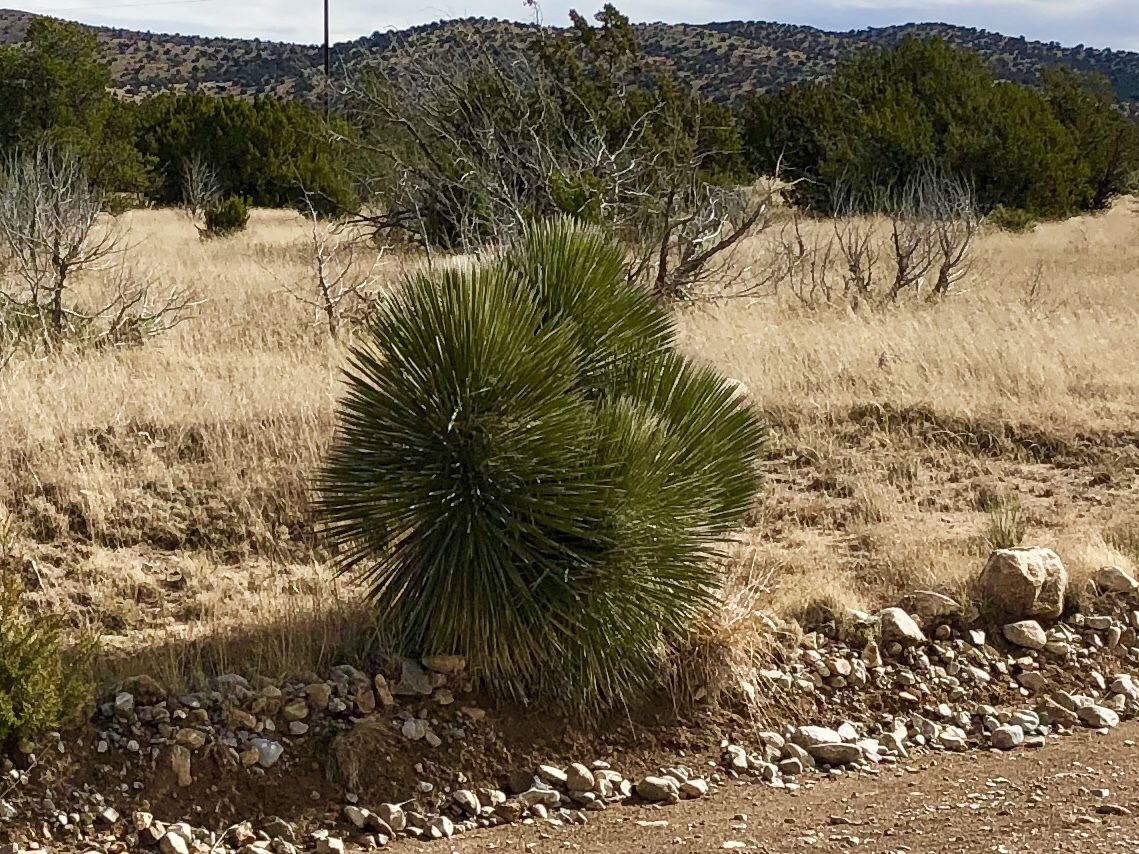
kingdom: Plantae
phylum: Tracheophyta
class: Liliopsida
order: Asparagales
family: Asparagaceae
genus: Yucca
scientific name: Yucca elata
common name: Palmella
